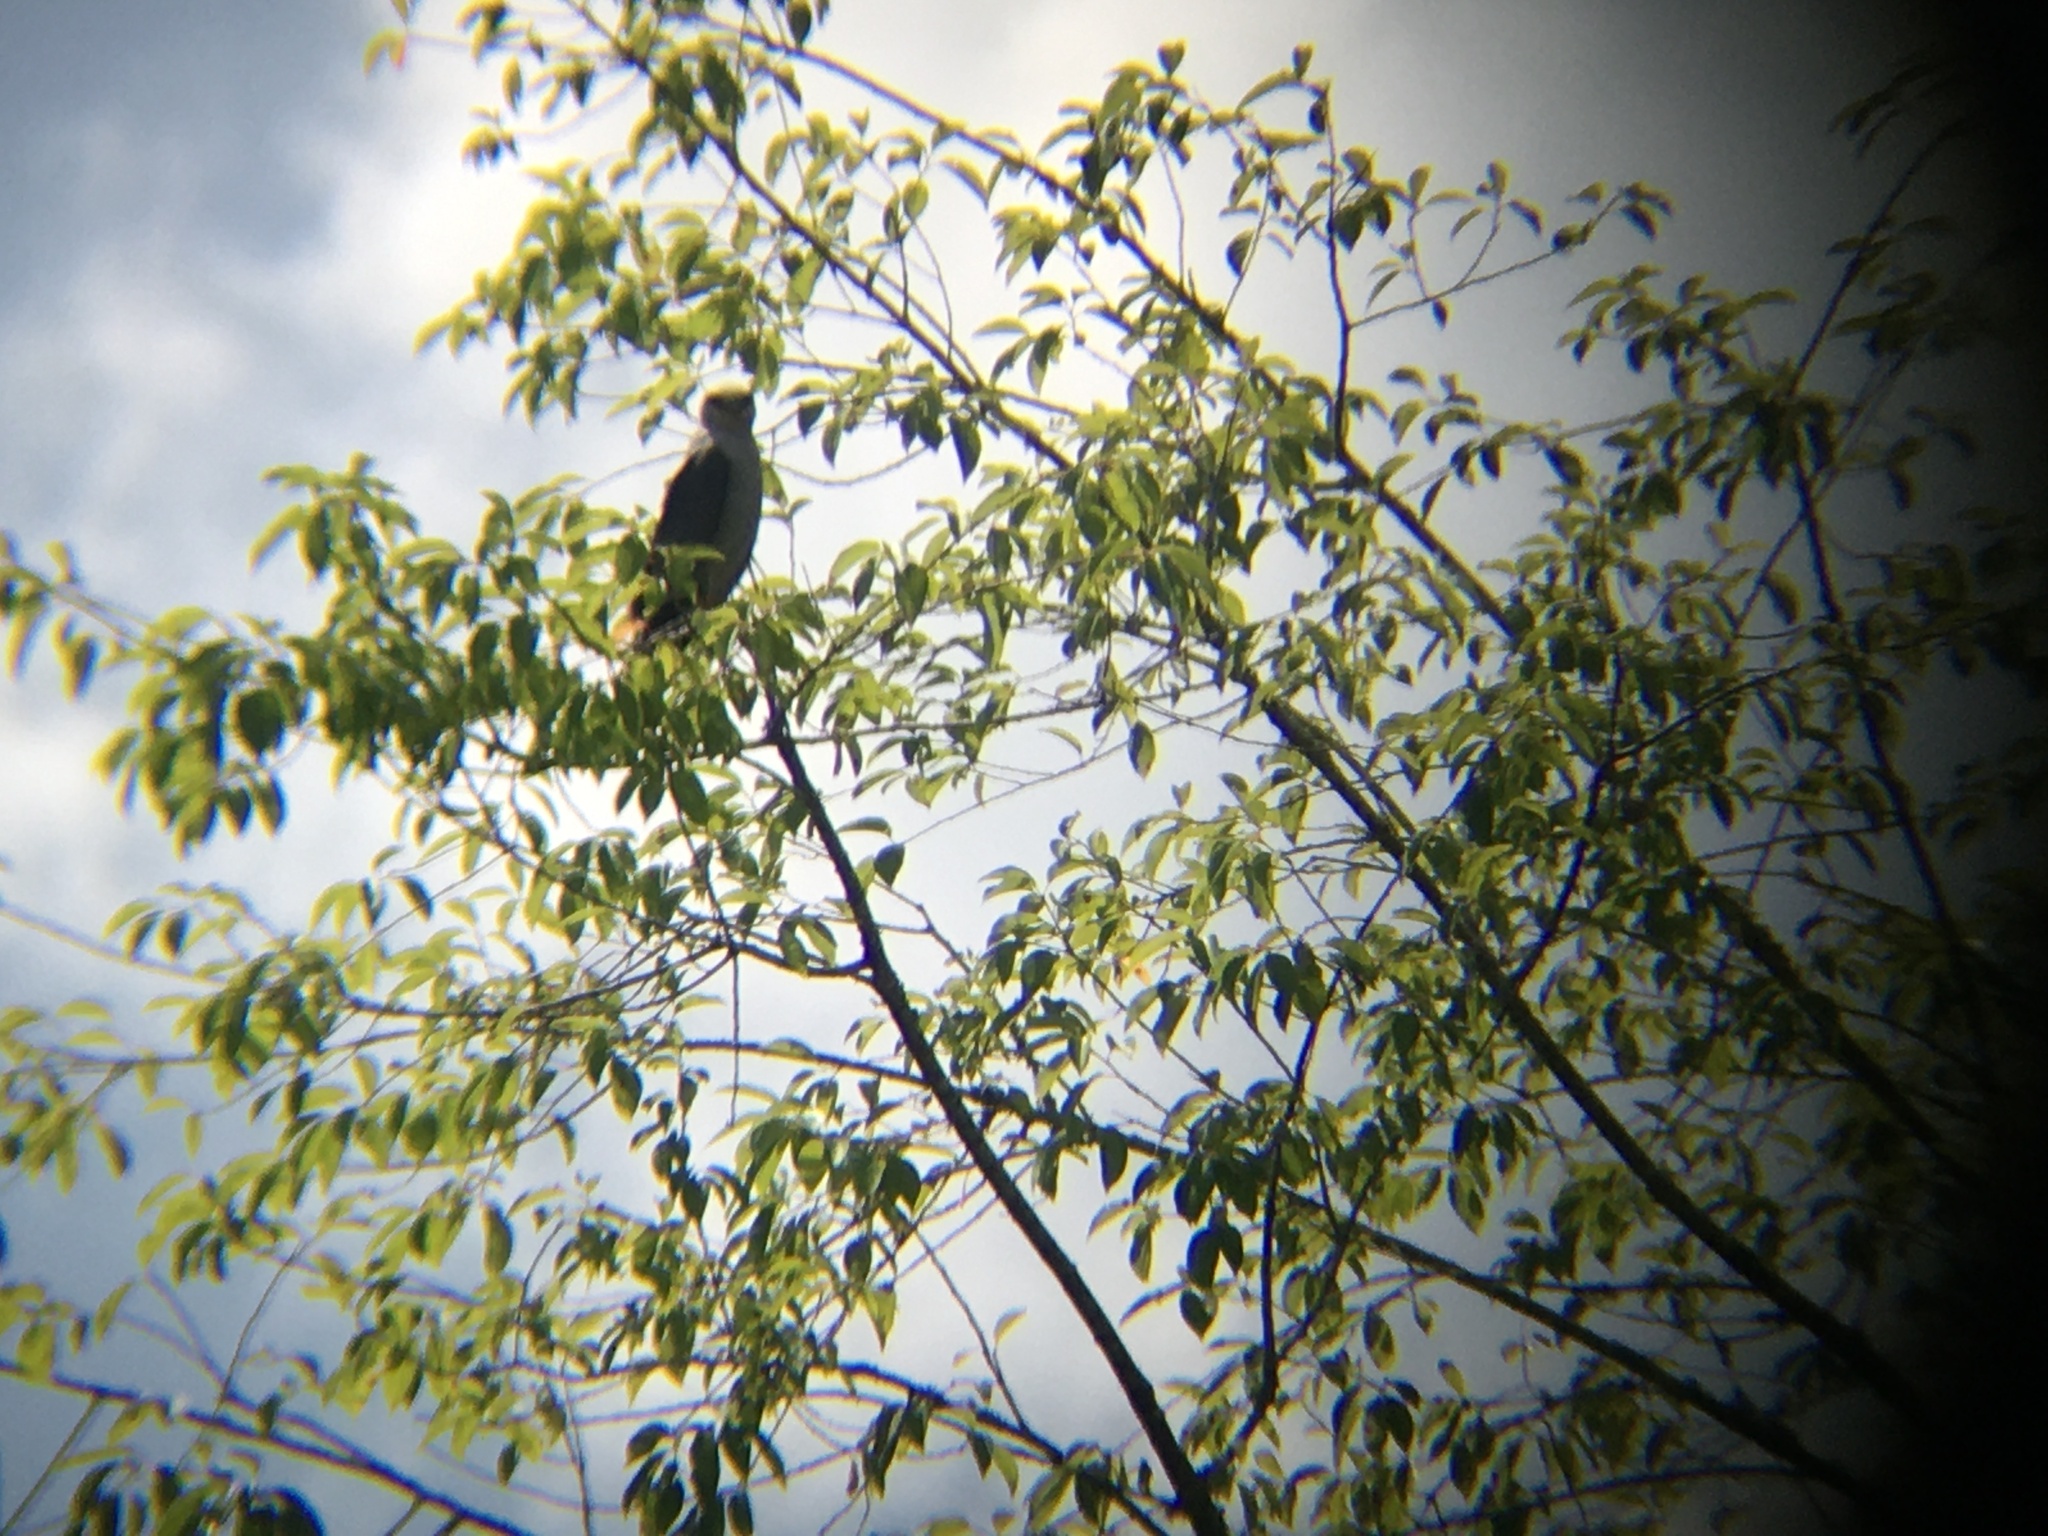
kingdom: Animalia
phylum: Chordata
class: Aves
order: Accipitriformes
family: Accipitridae
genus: Ictinia
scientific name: Ictinia mississippiensis
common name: Mississippi kite
